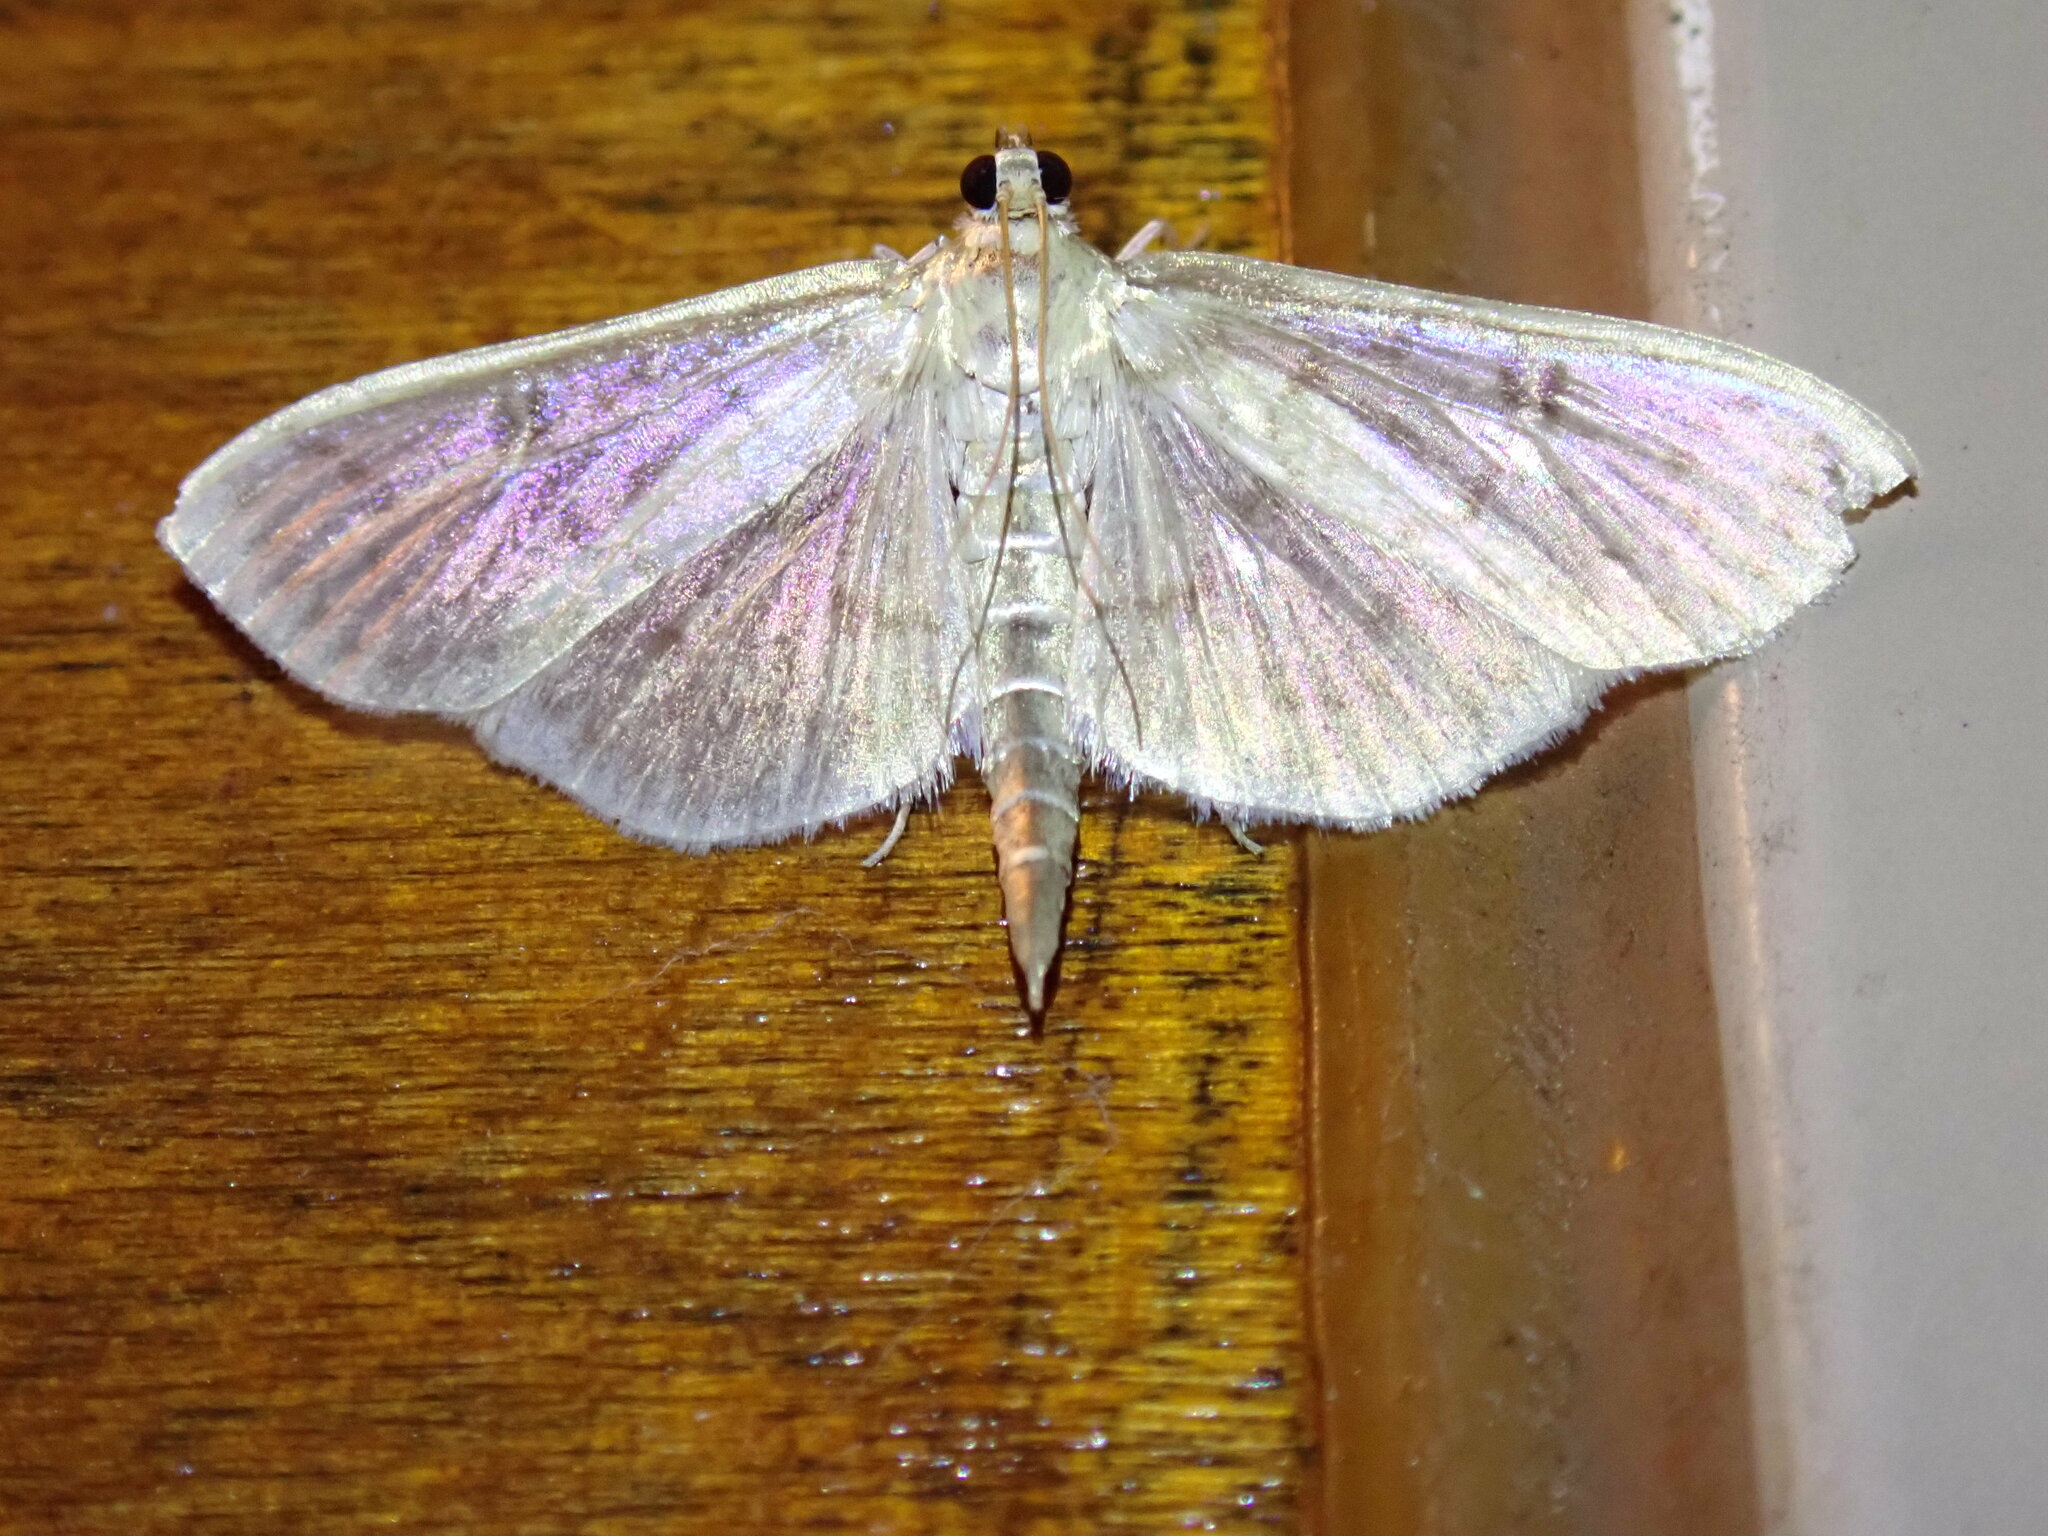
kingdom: Animalia
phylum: Arthropoda
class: Insecta
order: Lepidoptera
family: Crambidae
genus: Herpetogramma
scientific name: Herpetogramma aquilonalis
